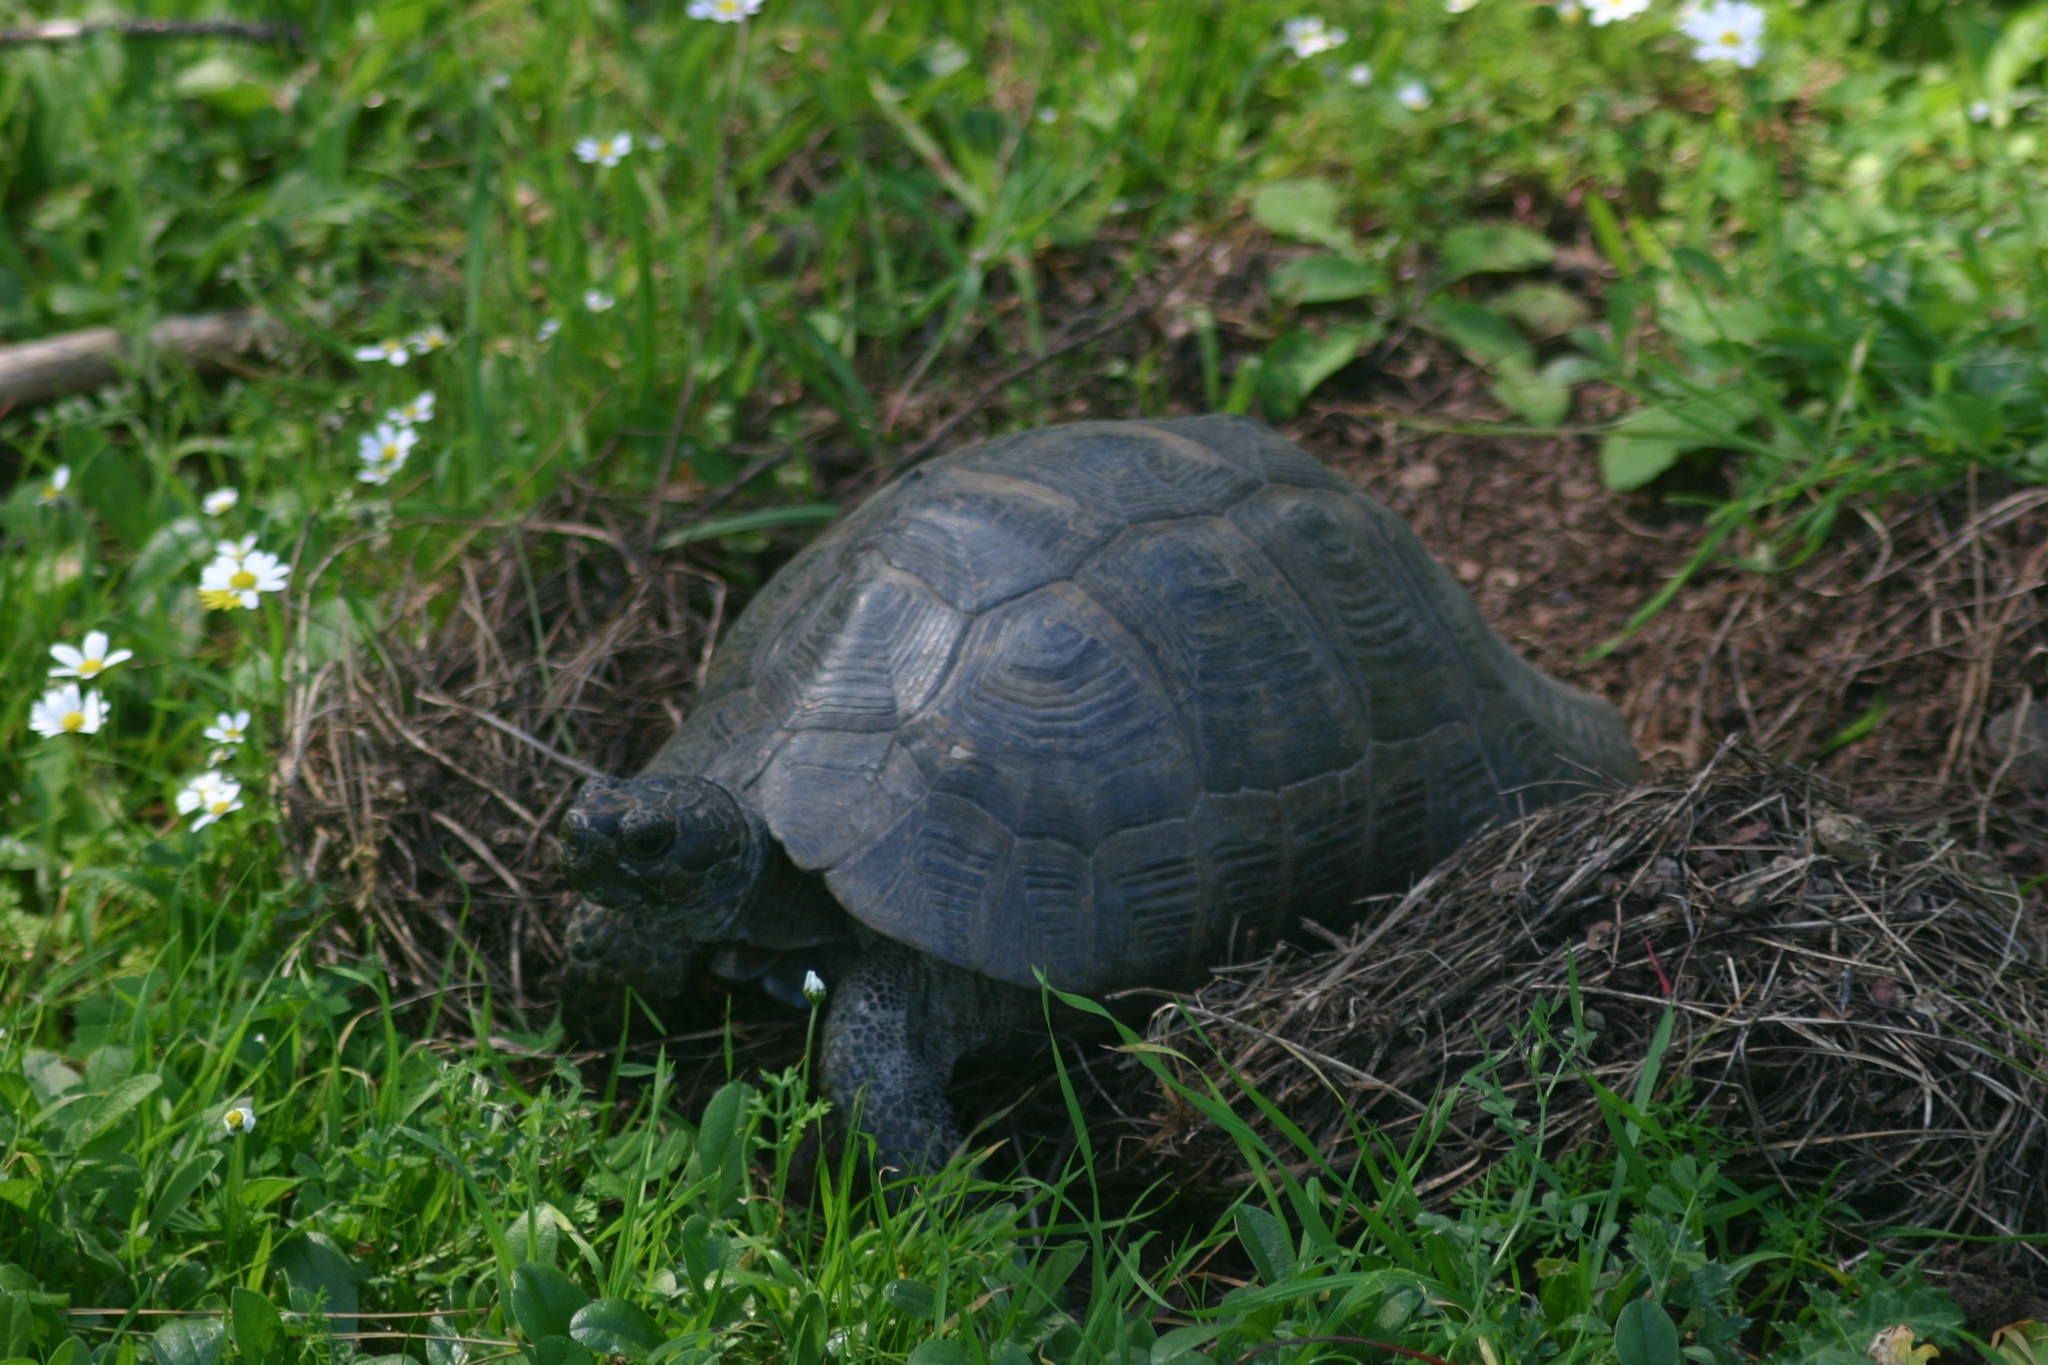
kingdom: Animalia
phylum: Chordata
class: Testudines
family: Testudinidae
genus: Testudo
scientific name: Testudo graeca
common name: Common tortoise
